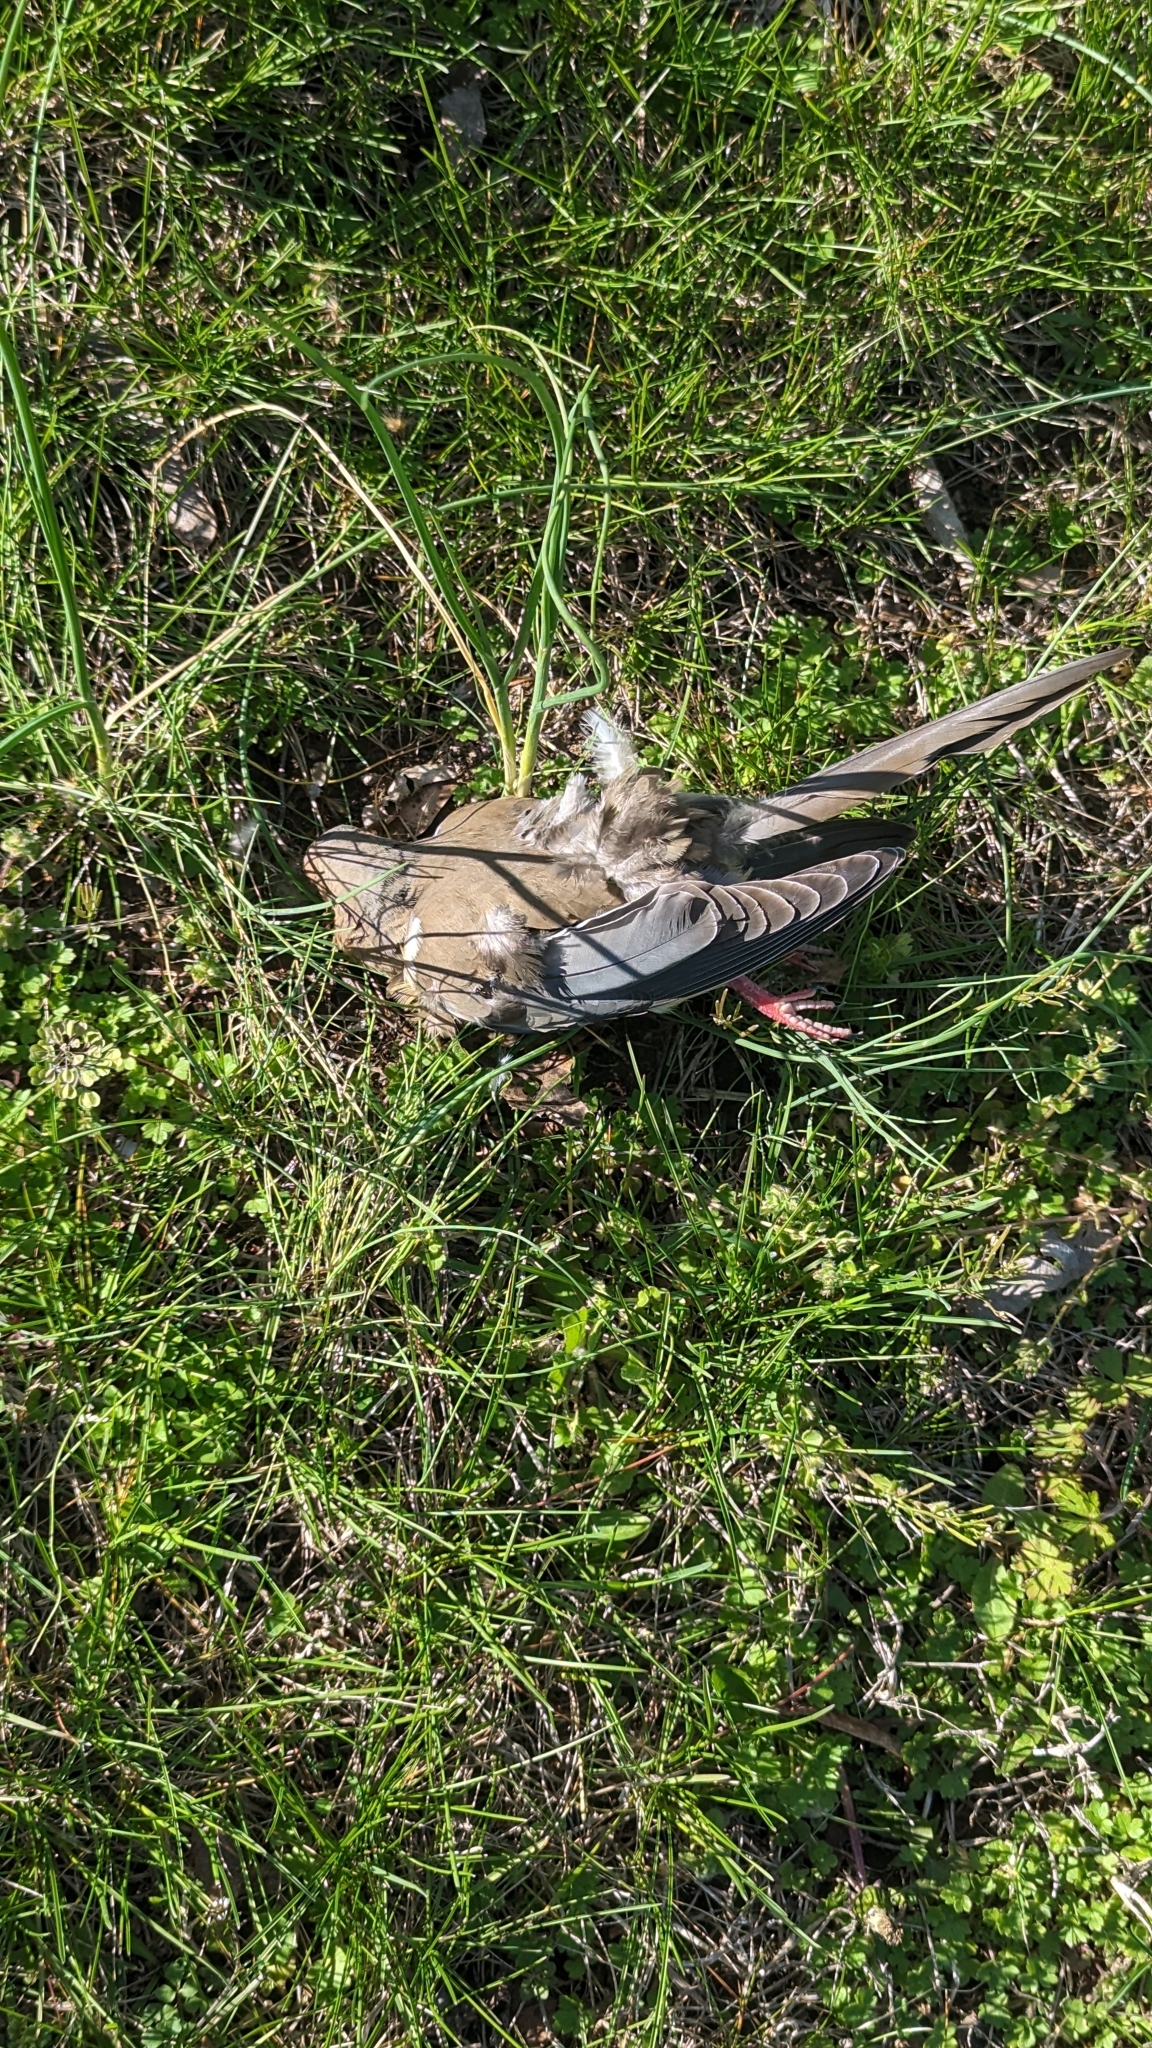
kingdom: Animalia
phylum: Chordata
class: Aves
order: Columbiformes
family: Columbidae
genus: Zenaida
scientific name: Zenaida macroura
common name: Mourning dove
